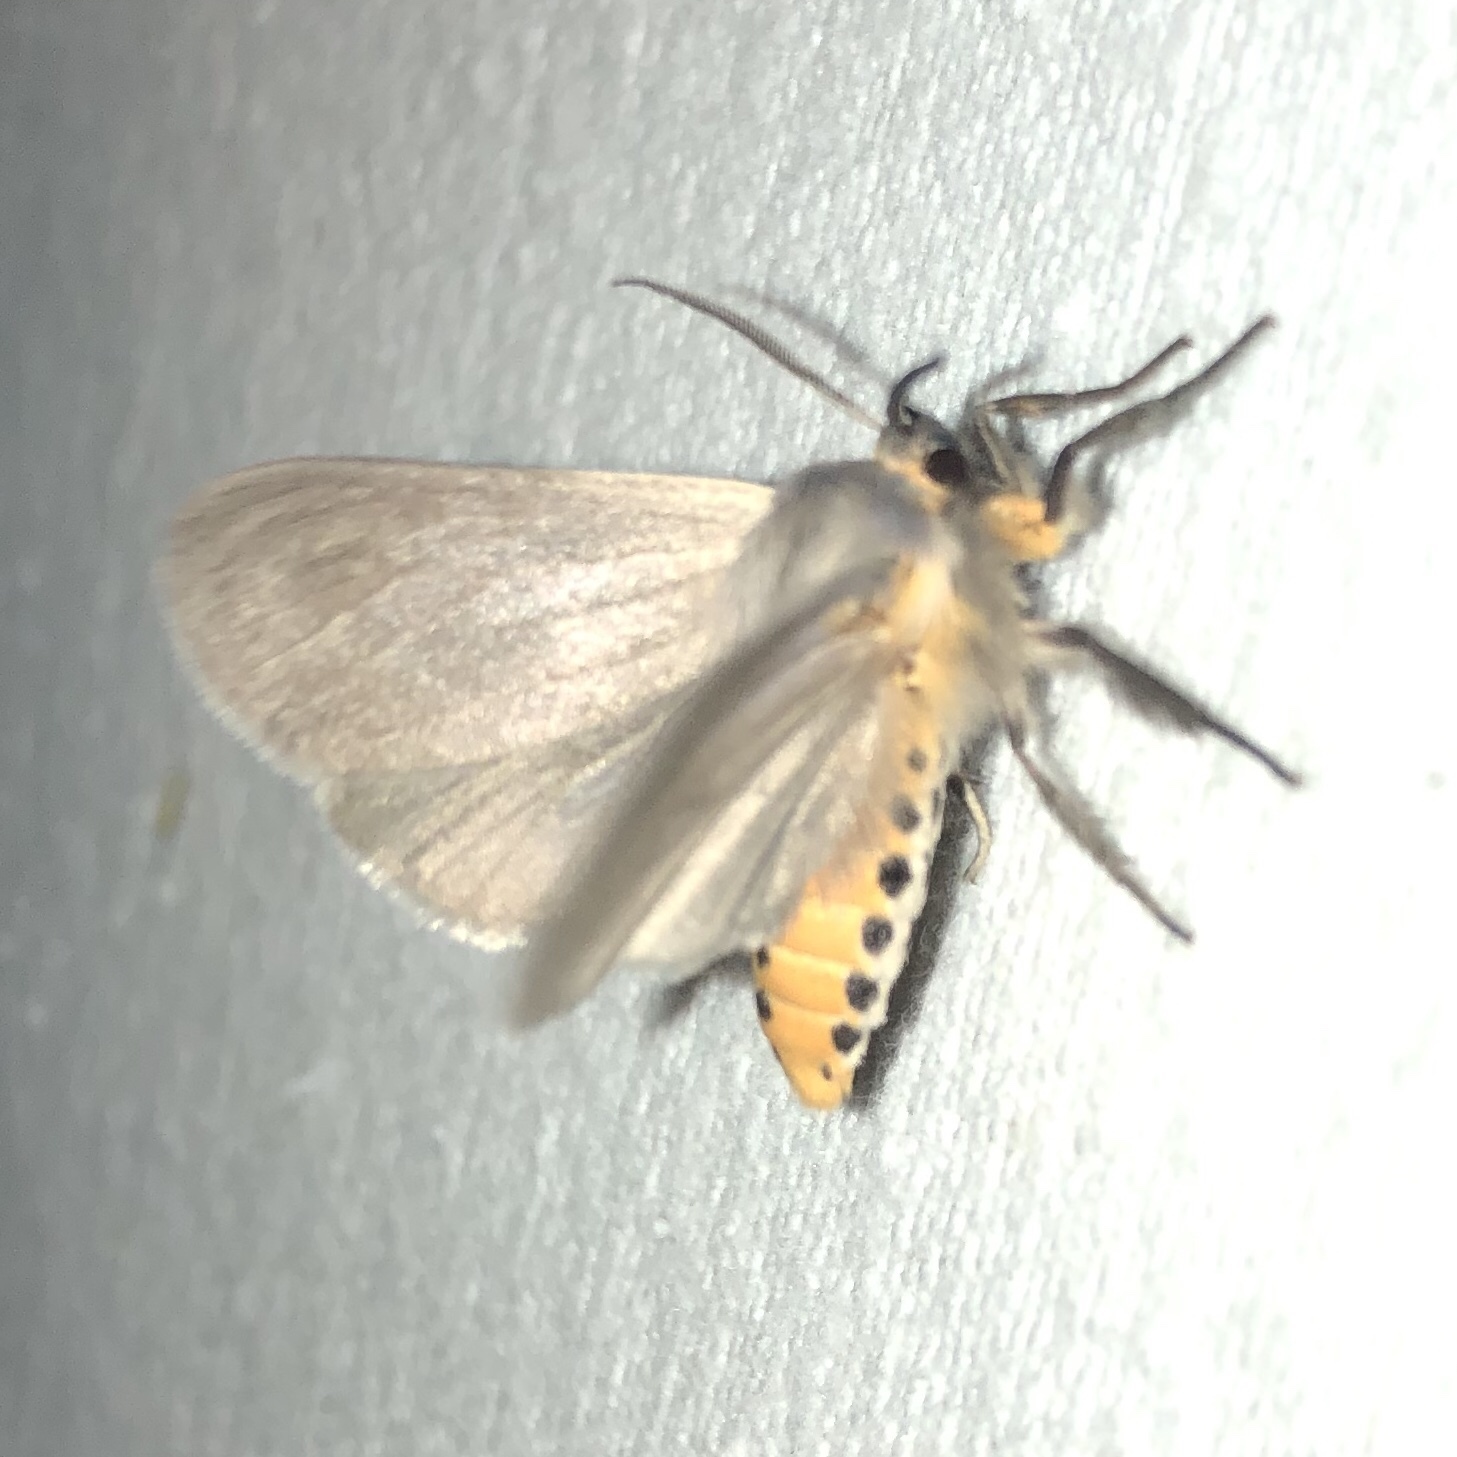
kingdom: Animalia
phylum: Arthropoda
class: Insecta
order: Lepidoptera
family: Erebidae
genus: Euchaetes
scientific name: Euchaetes egle
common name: Milkweed tussock moth
